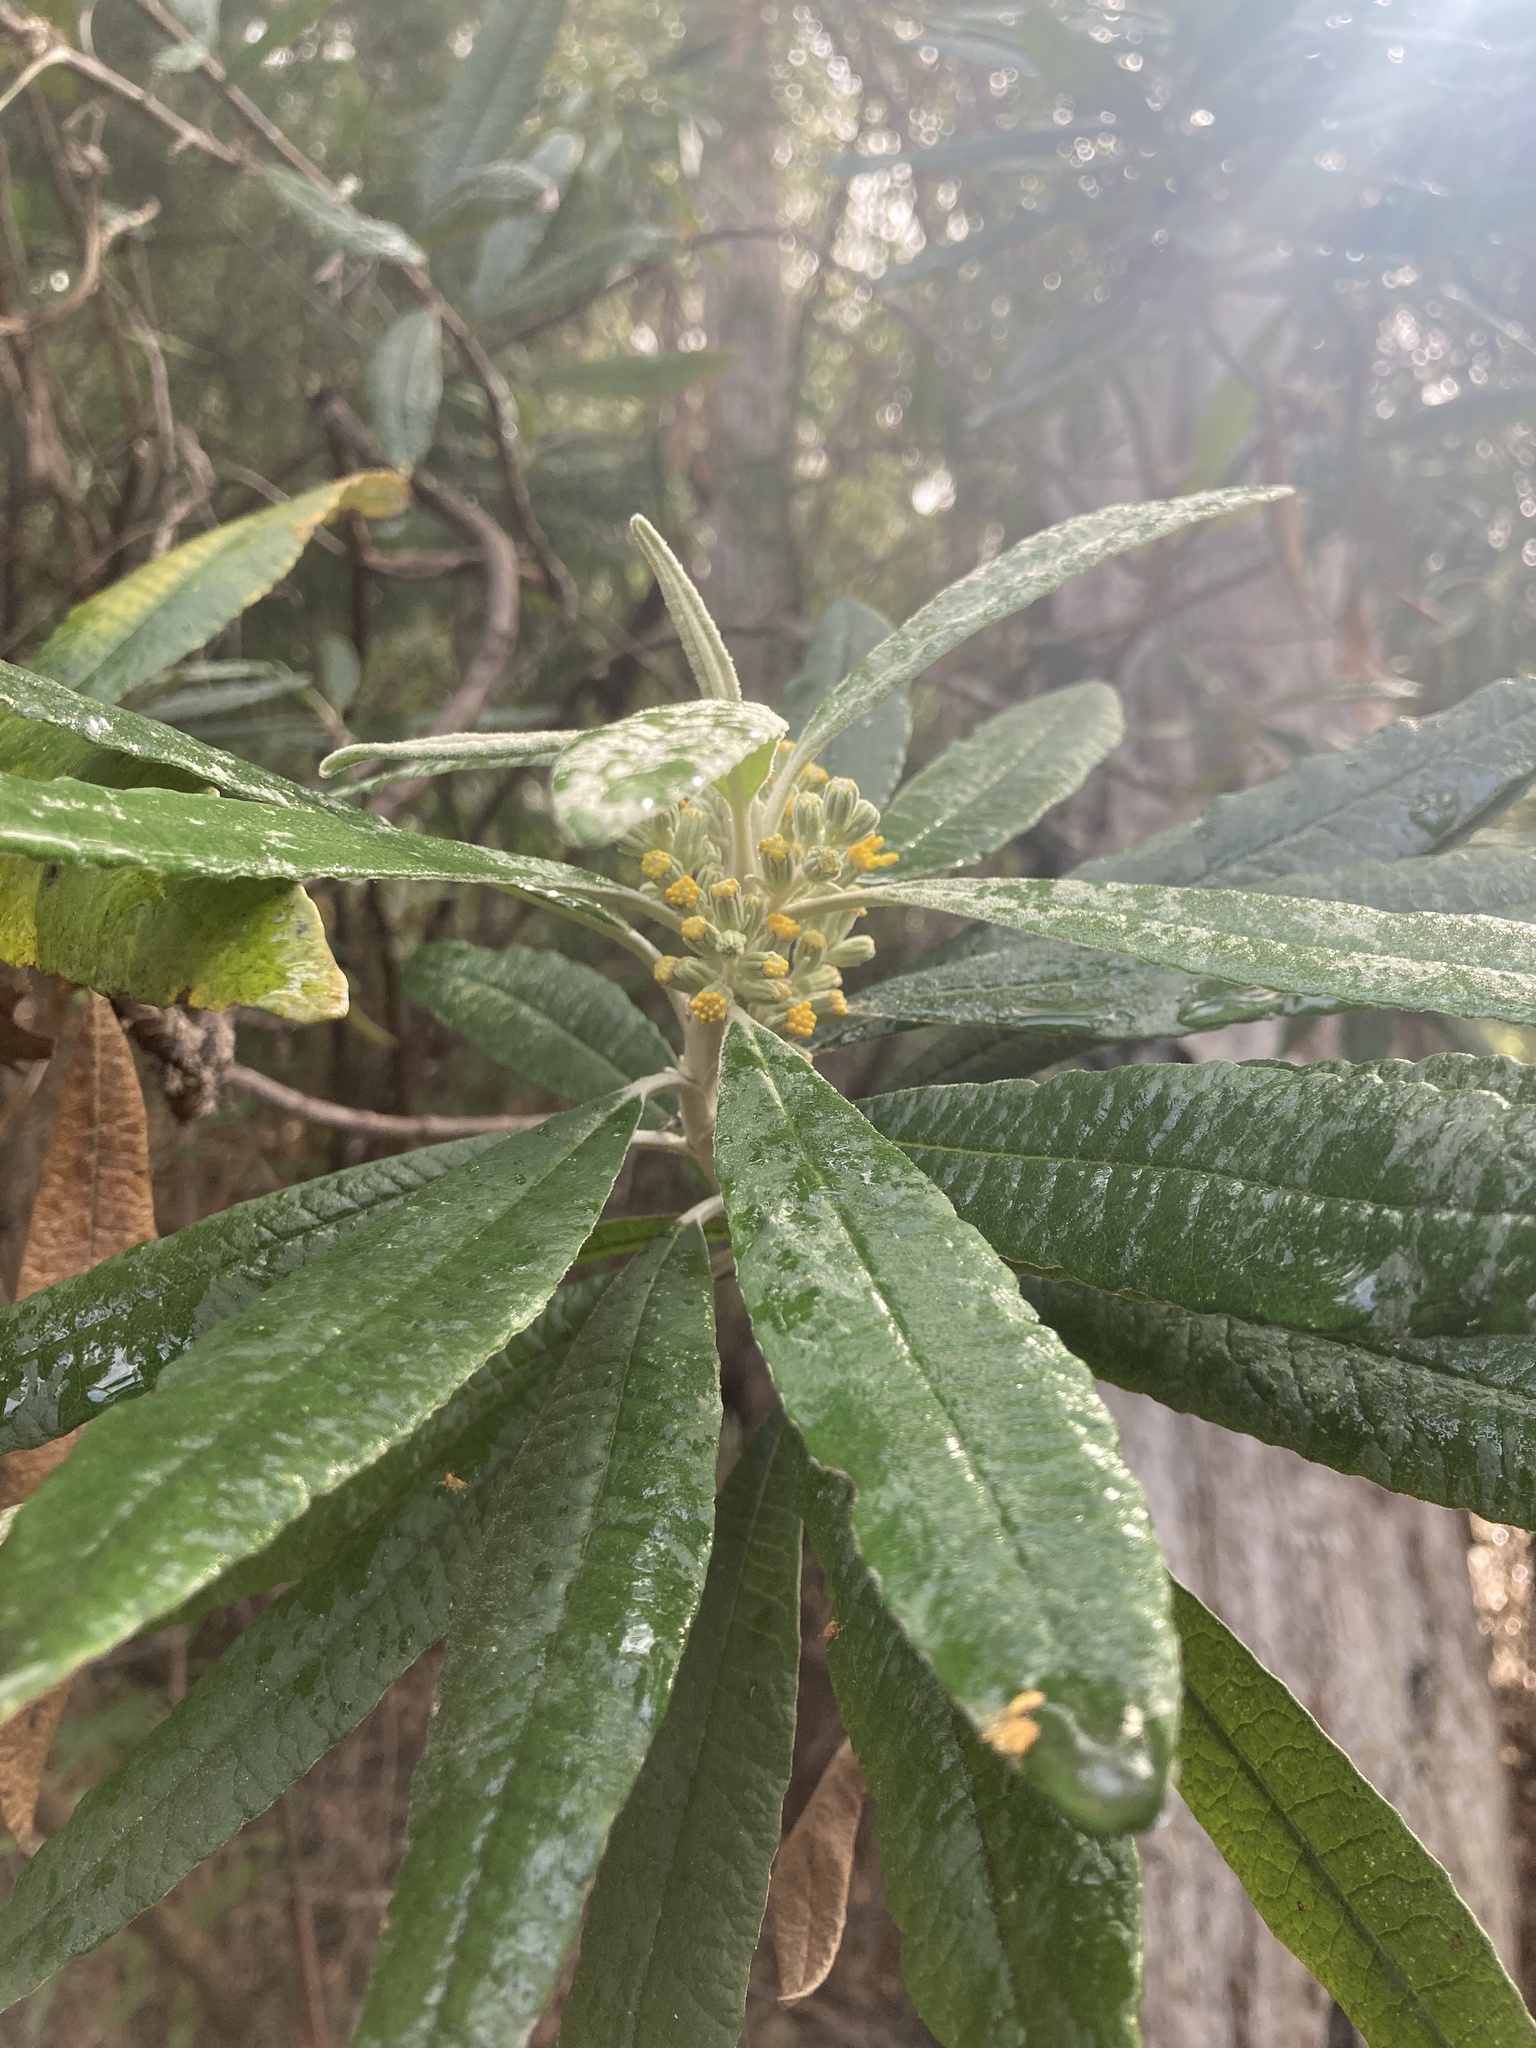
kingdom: Plantae
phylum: Tracheophyta
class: Magnoliopsida
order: Asterales
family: Asteraceae
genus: Bedfordia
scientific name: Bedfordia salicina
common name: Blanketleaf
